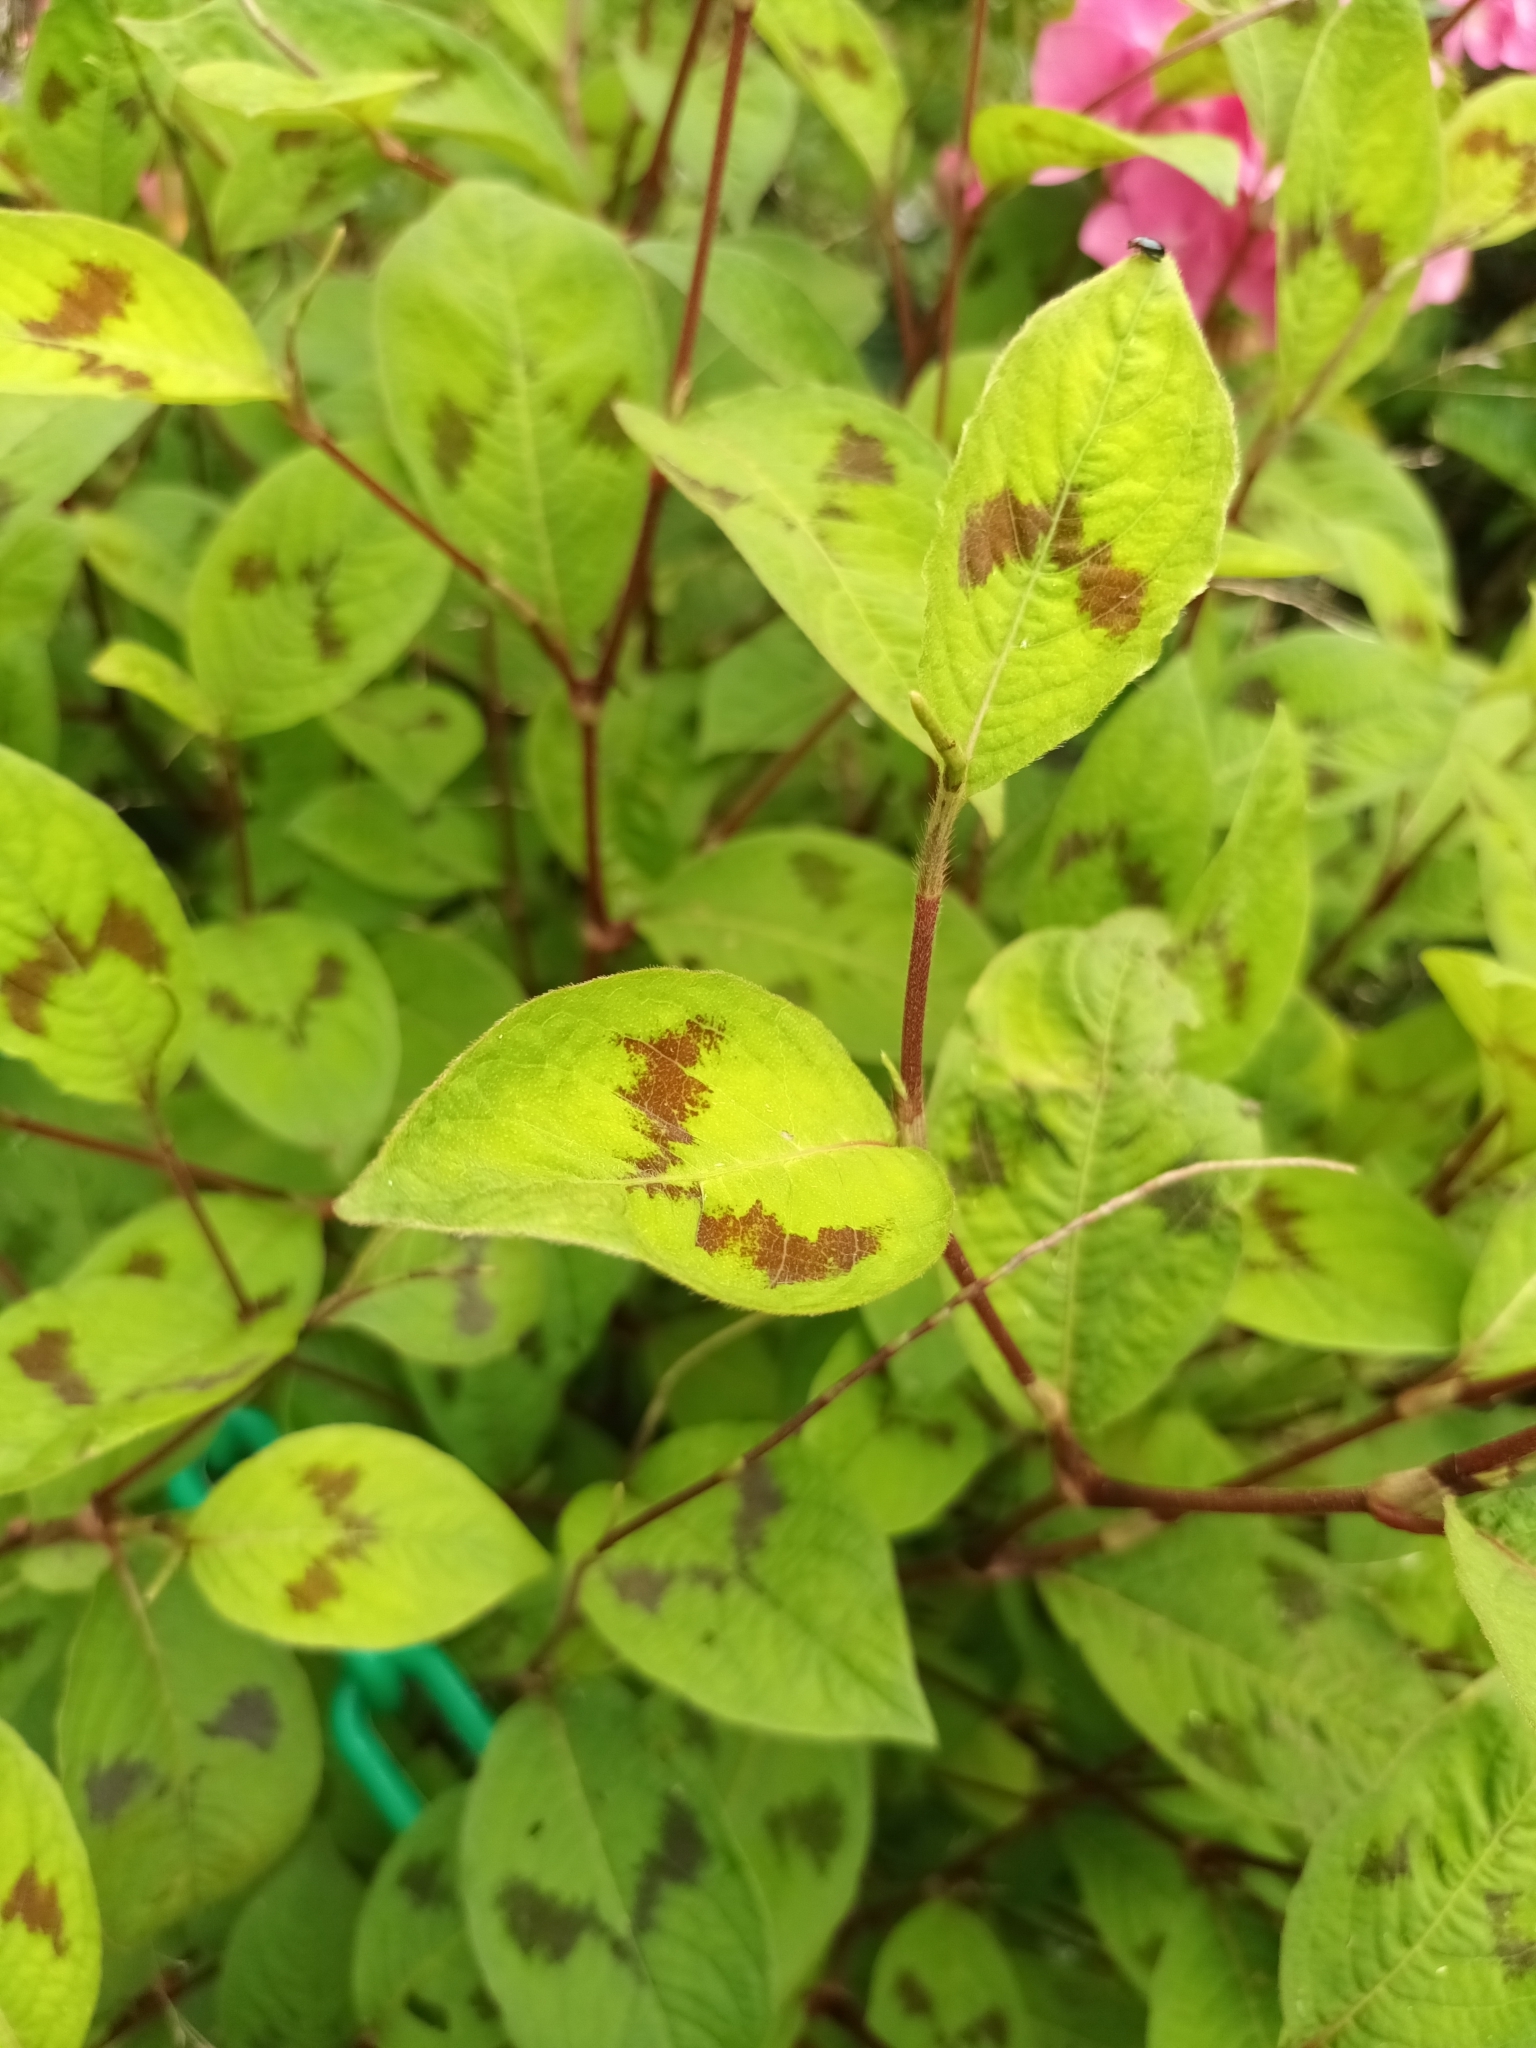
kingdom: Plantae
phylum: Tracheophyta
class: Magnoliopsida
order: Caryophyllales
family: Polygonaceae
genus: Persicaria
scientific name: Persicaria filiformis
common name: Asian jumpseed
